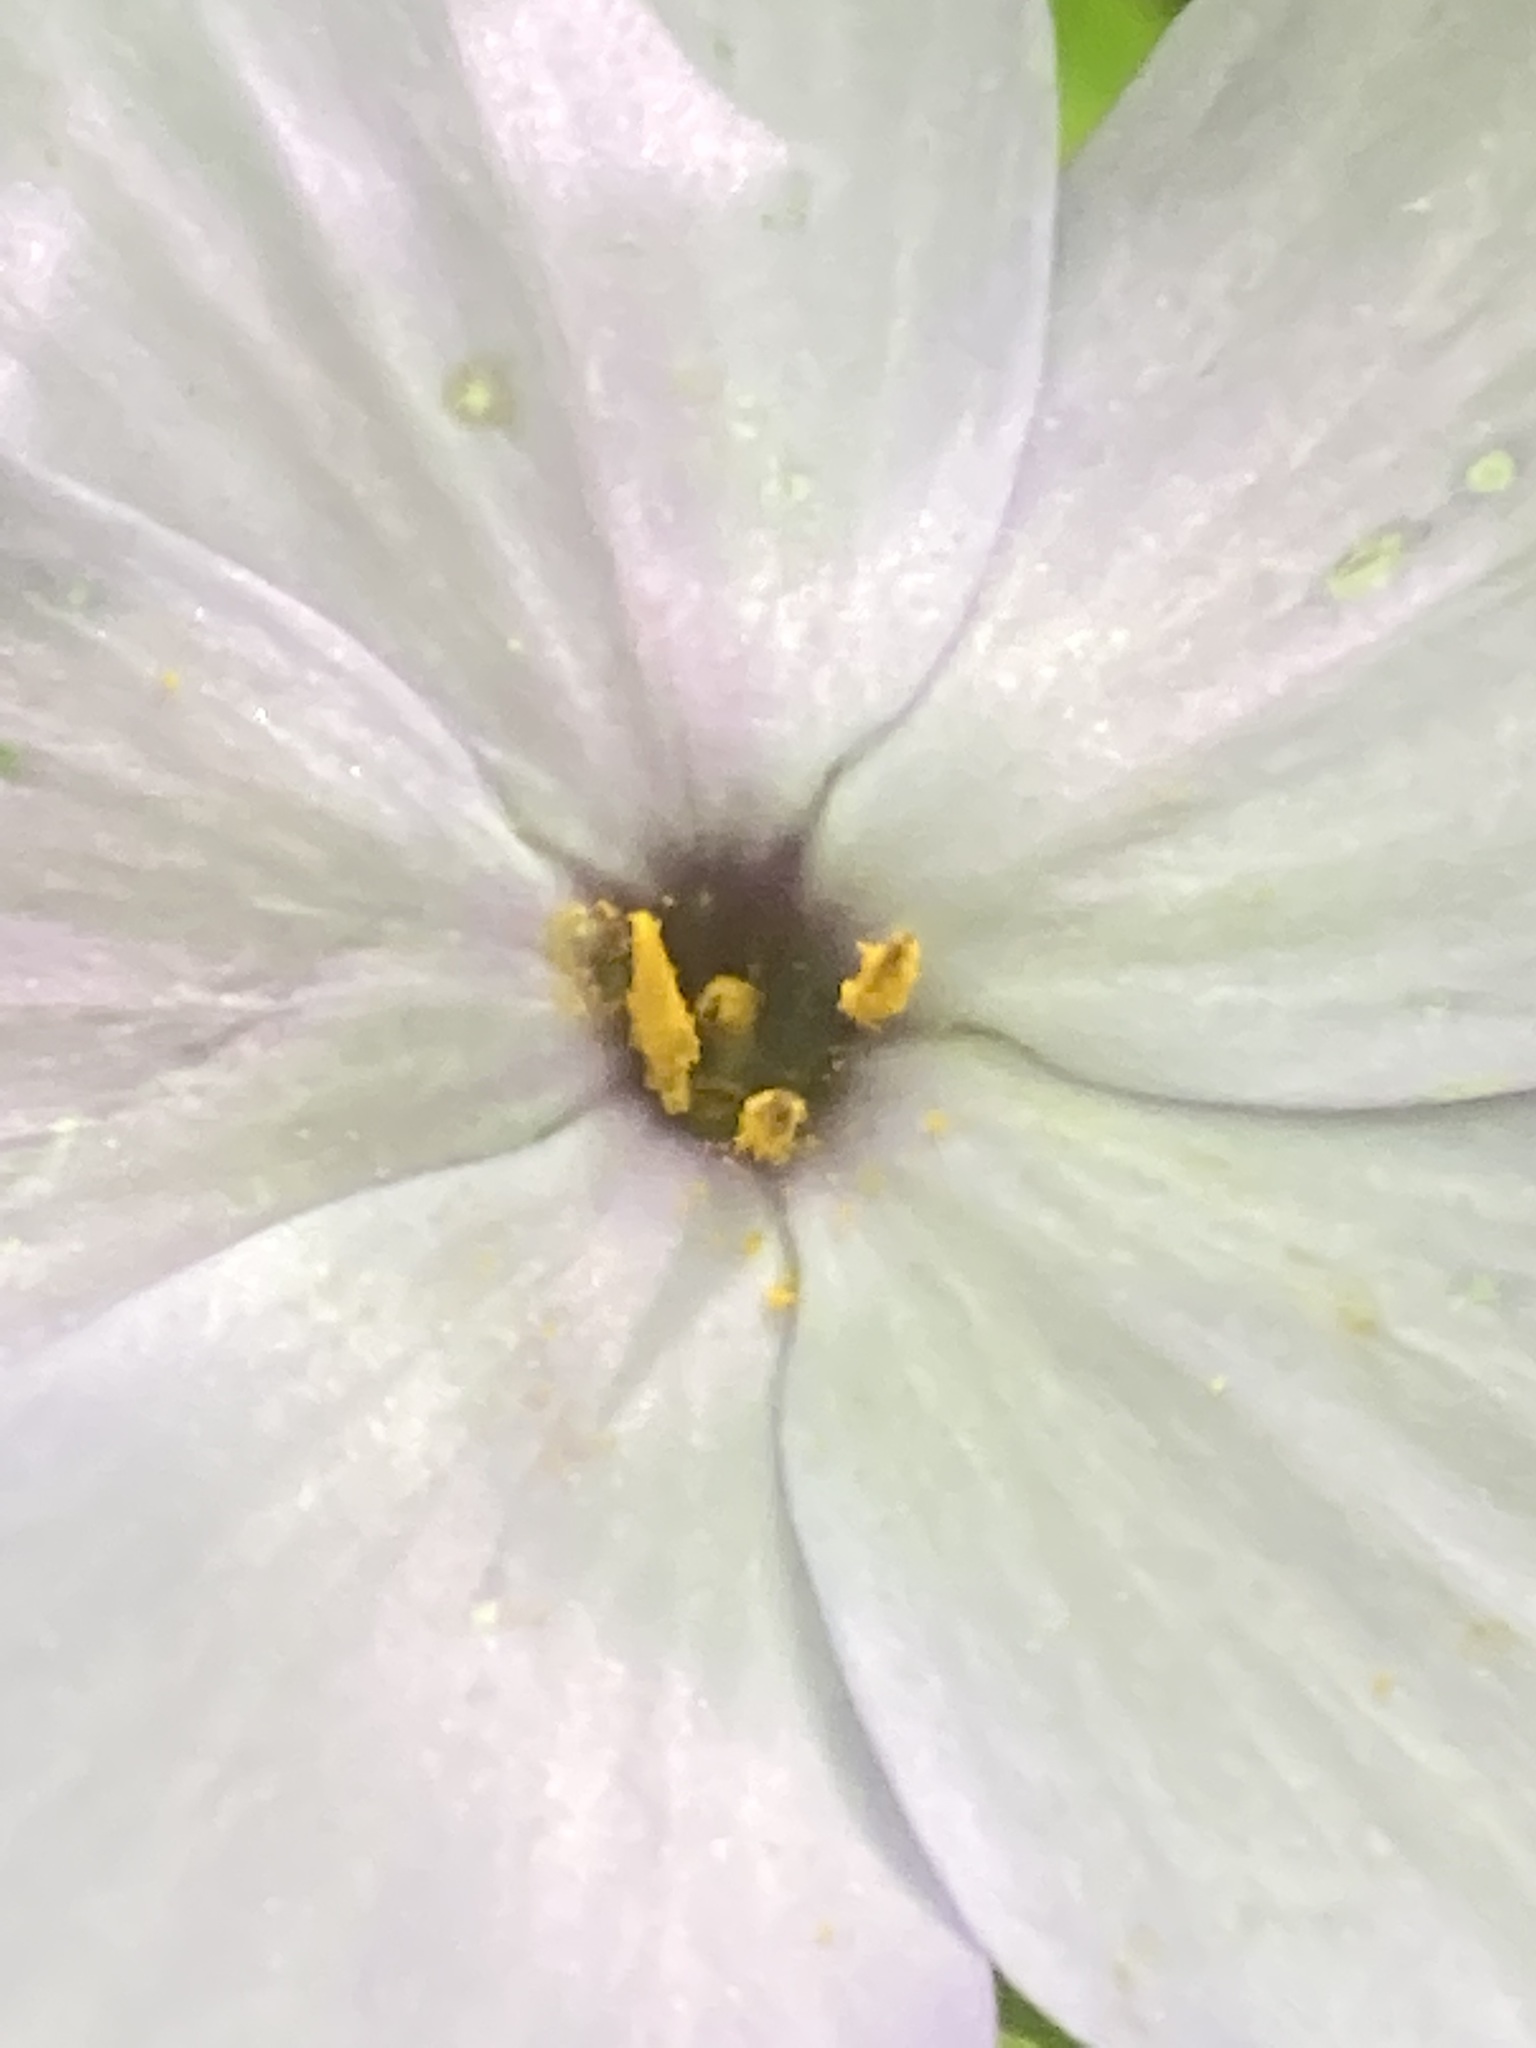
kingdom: Plantae
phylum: Tracheophyta
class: Magnoliopsida
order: Ericales
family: Polemoniaceae
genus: Phlox
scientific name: Phlox stolonifera
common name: Creeping phlox
